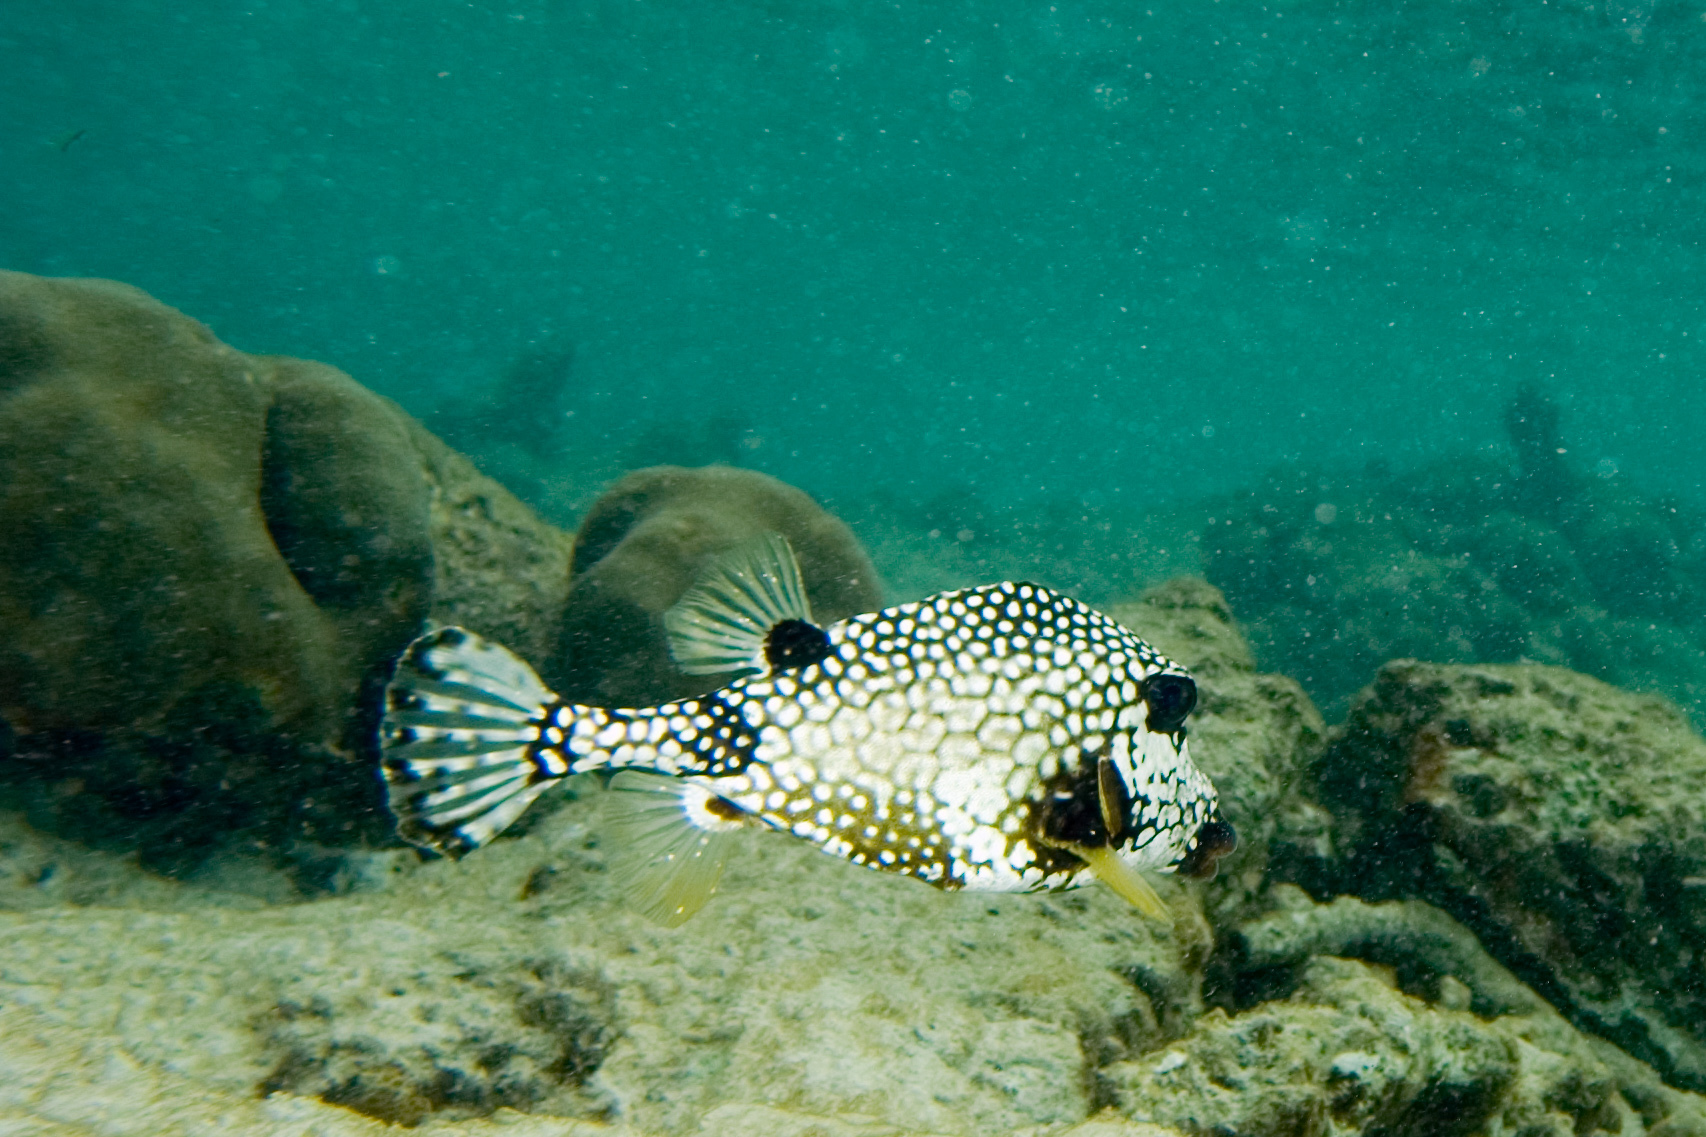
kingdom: Animalia
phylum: Chordata
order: Tetraodontiformes
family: Ostraciidae
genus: Lactophrys
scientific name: Lactophrys triqueter
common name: Smooth trunkfish
